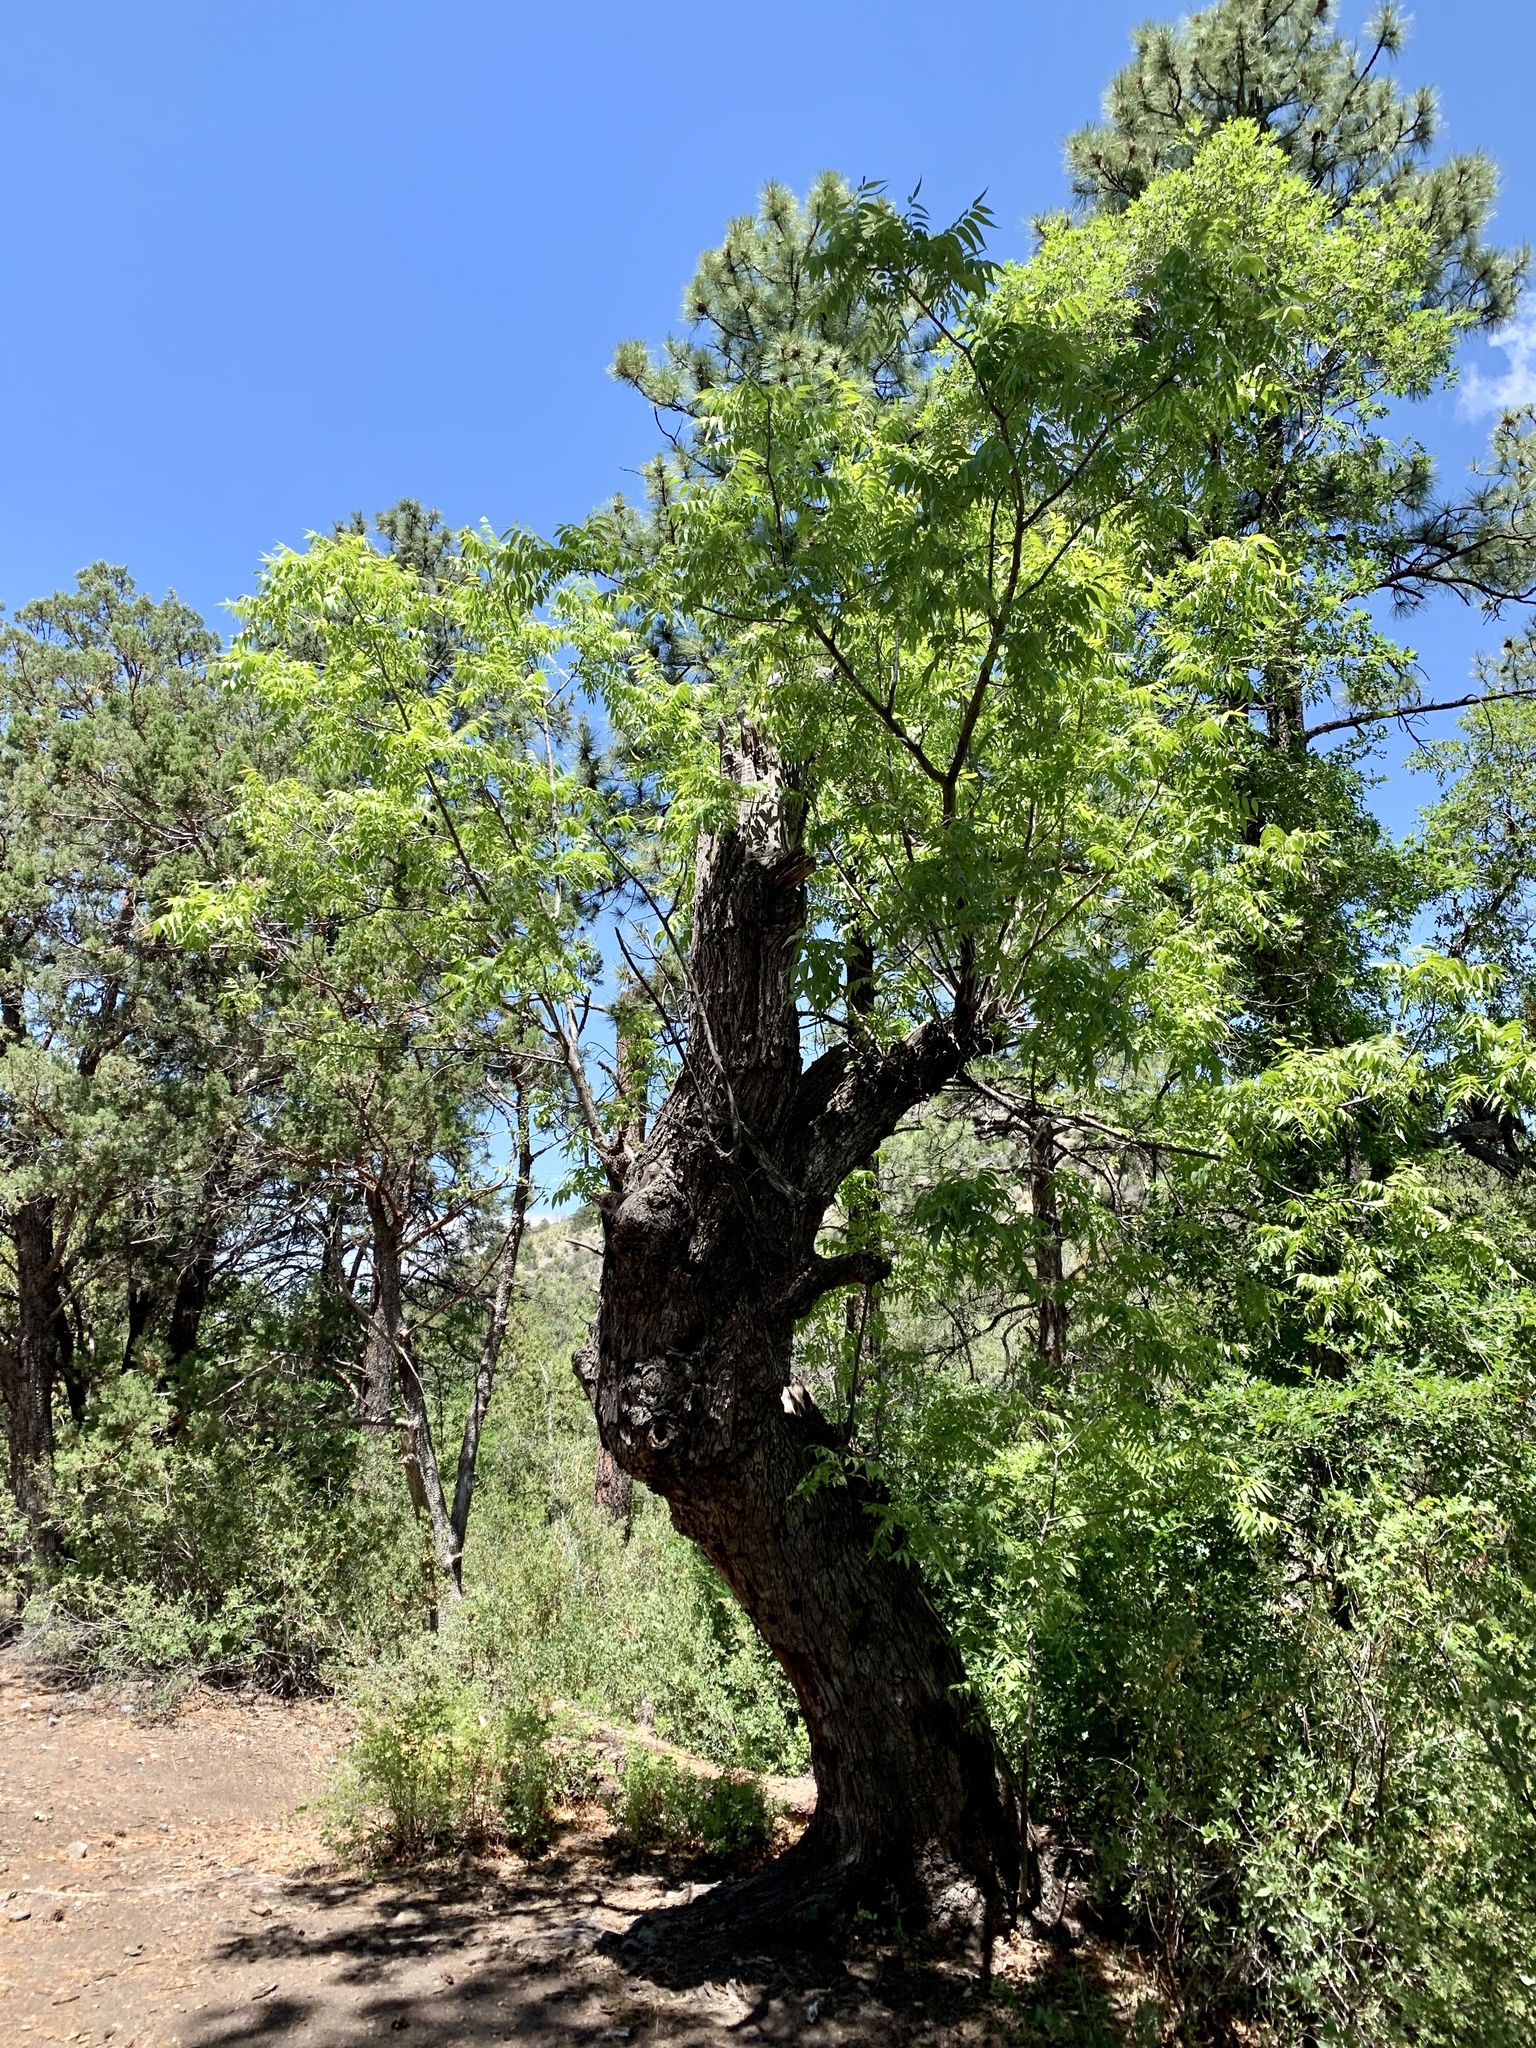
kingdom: Plantae
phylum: Tracheophyta
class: Magnoliopsida
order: Fagales
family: Juglandaceae
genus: Juglans
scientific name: Juglans major
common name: Arizona walnut
